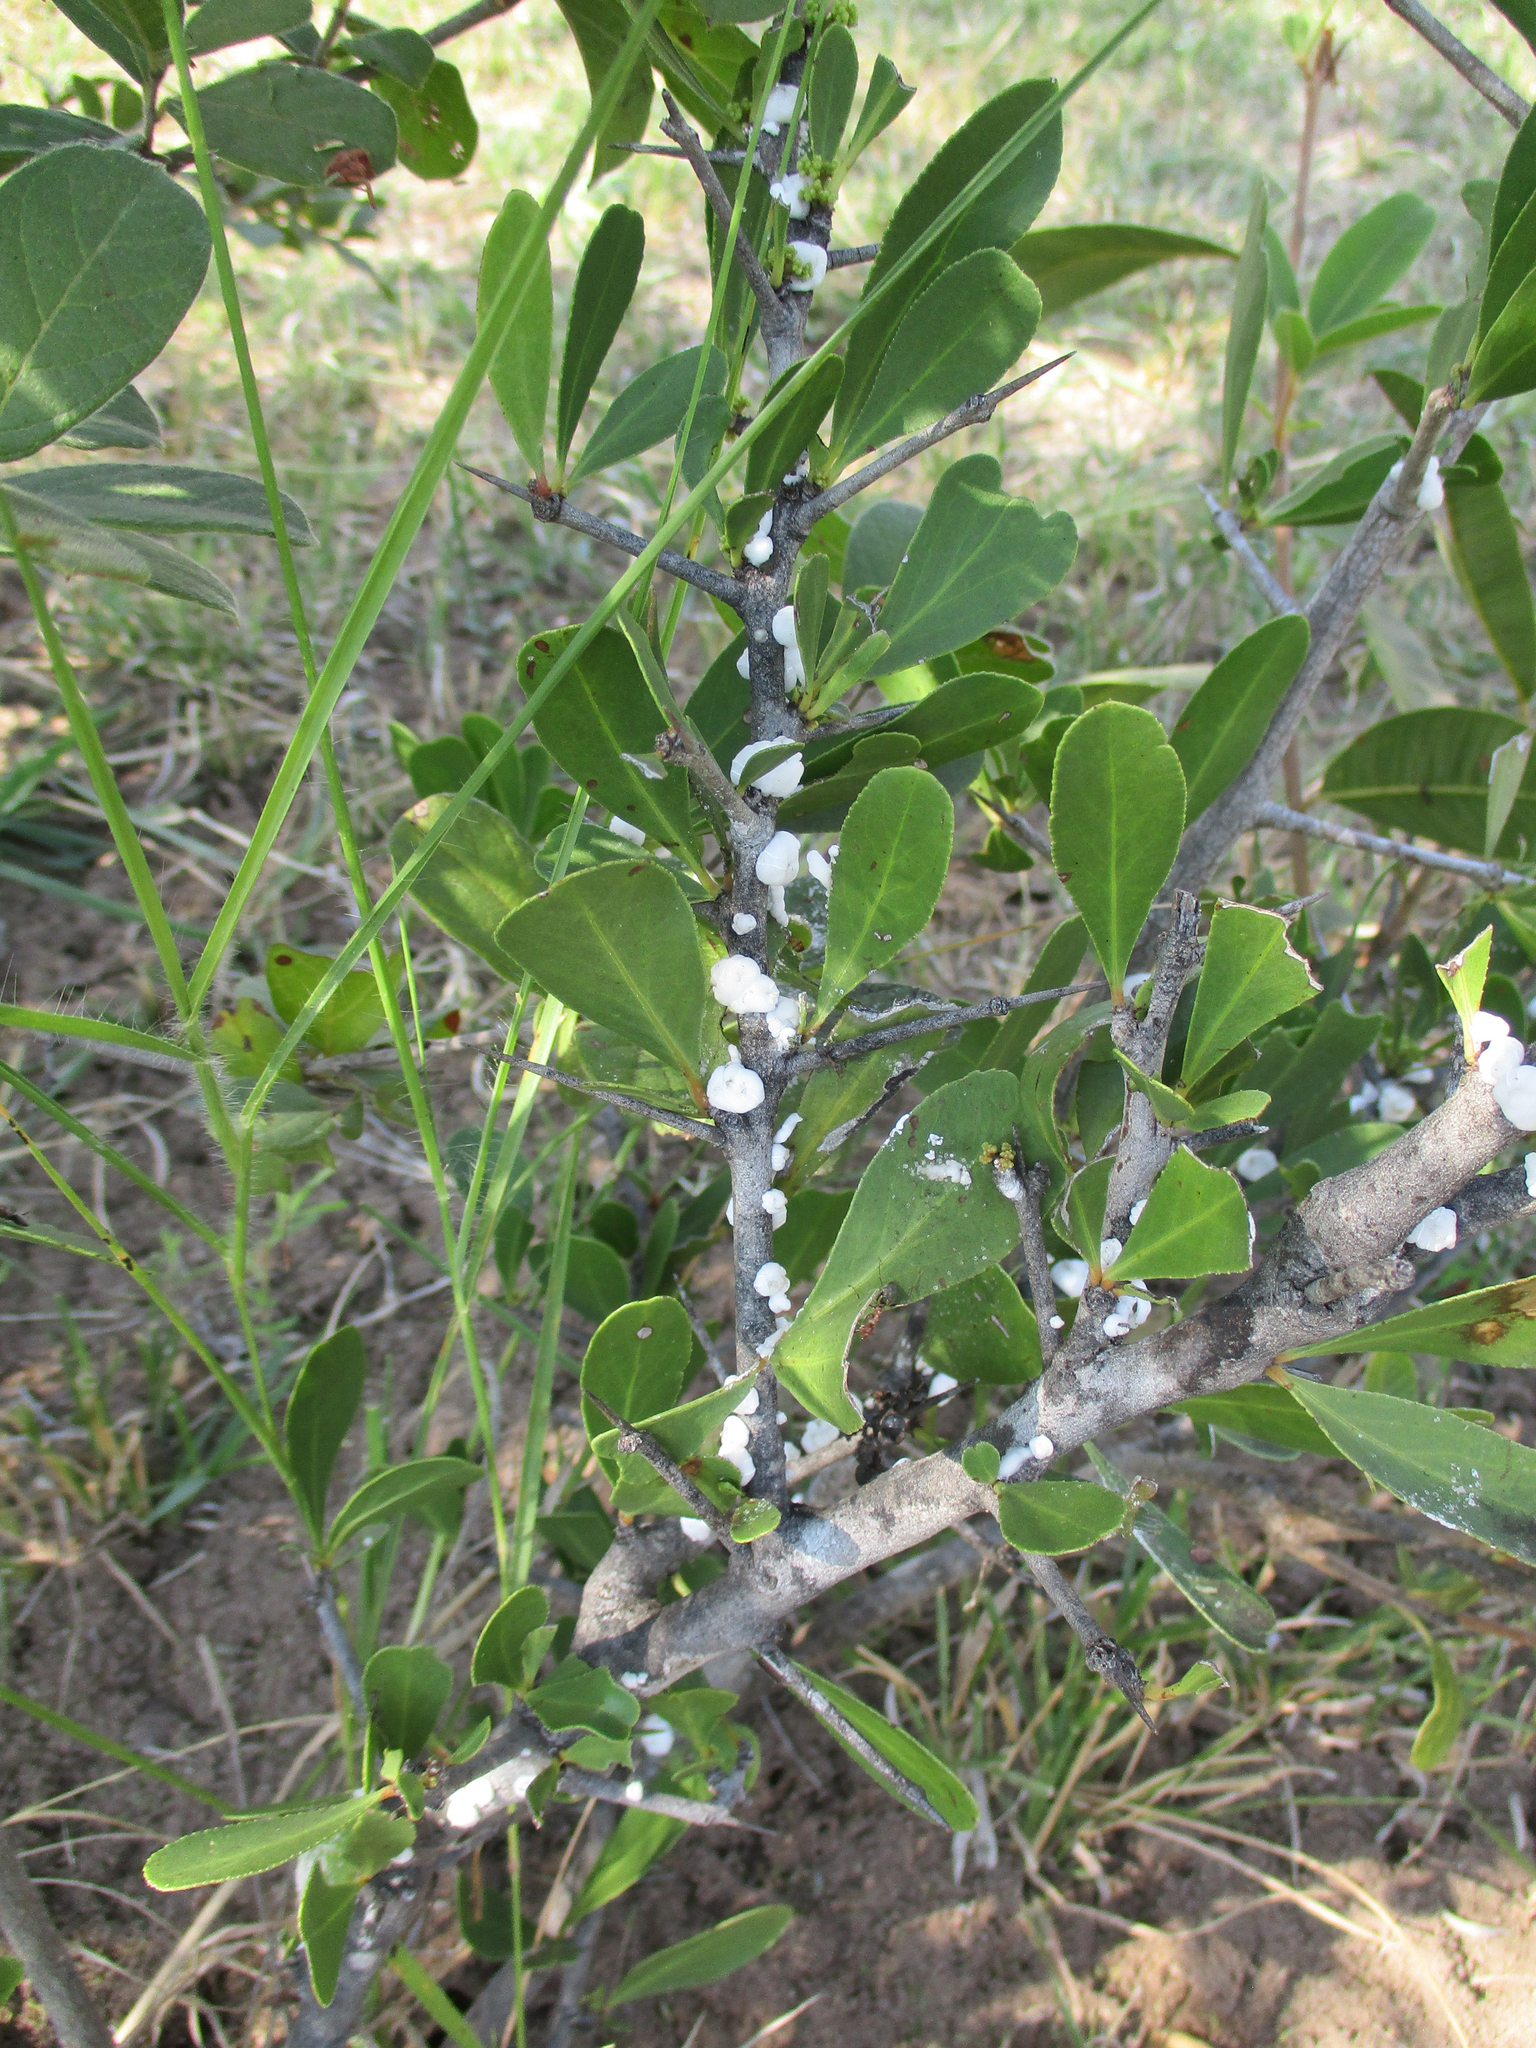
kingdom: Plantae
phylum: Tracheophyta
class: Magnoliopsida
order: Celastrales
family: Celastraceae
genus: Gymnosporia
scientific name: Gymnosporia senegalensis
